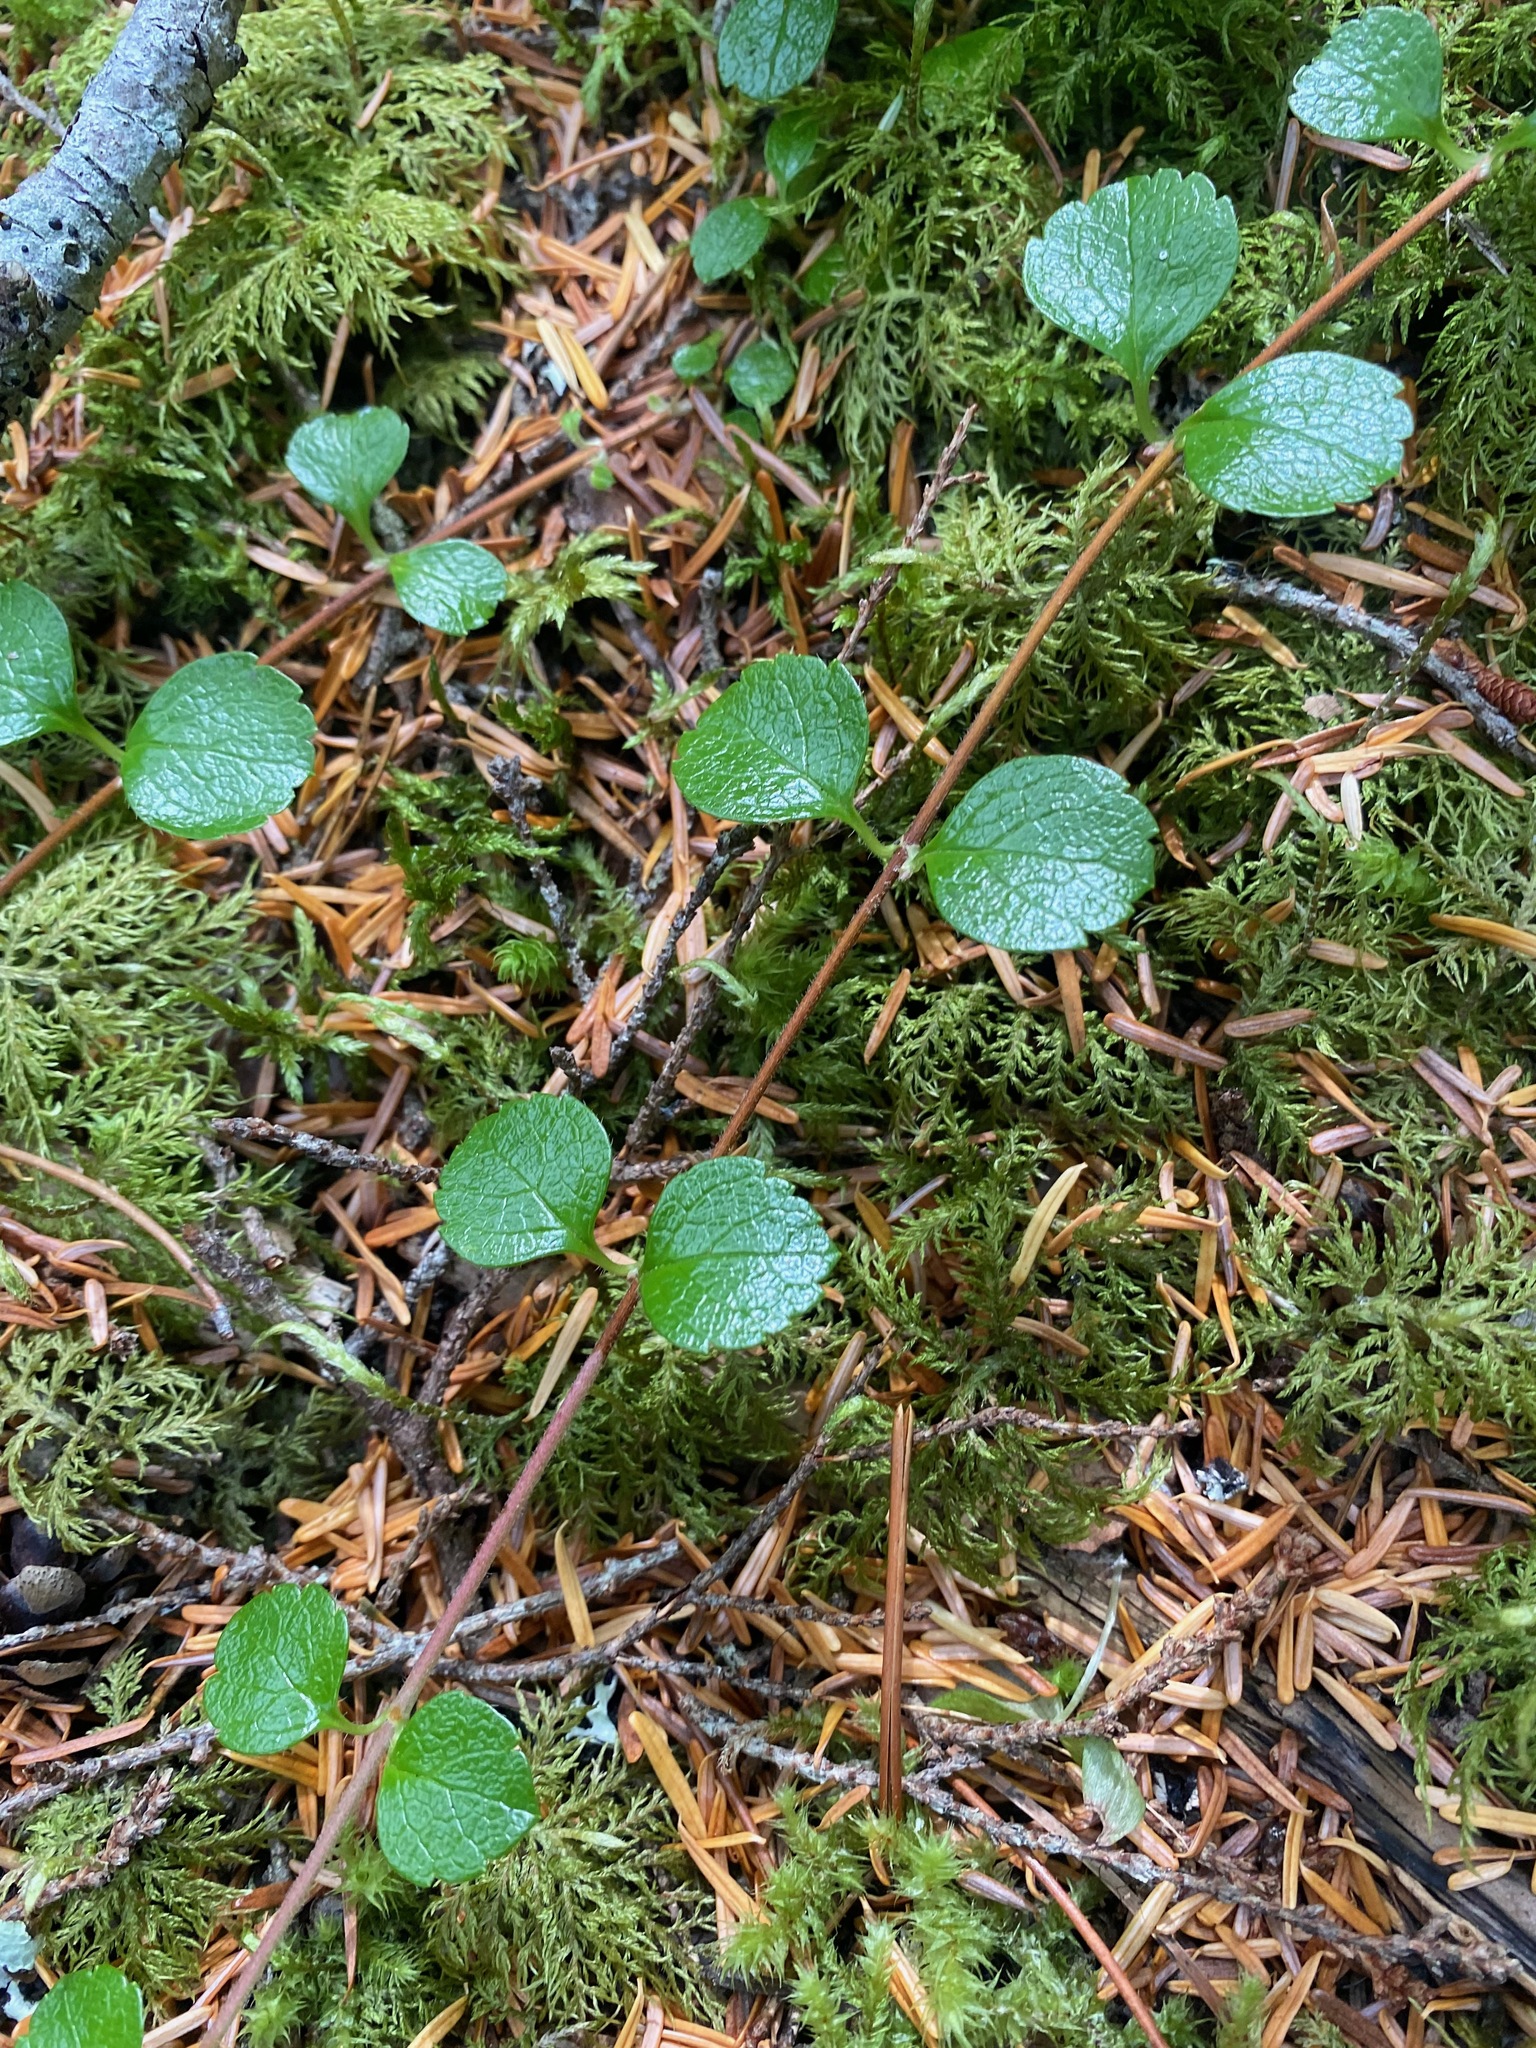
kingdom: Plantae
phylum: Tracheophyta
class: Magnoliopsida
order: Dipsacales
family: Caprifoliaceae
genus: Linnaea
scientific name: Linnaea borealis
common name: Twinflower
